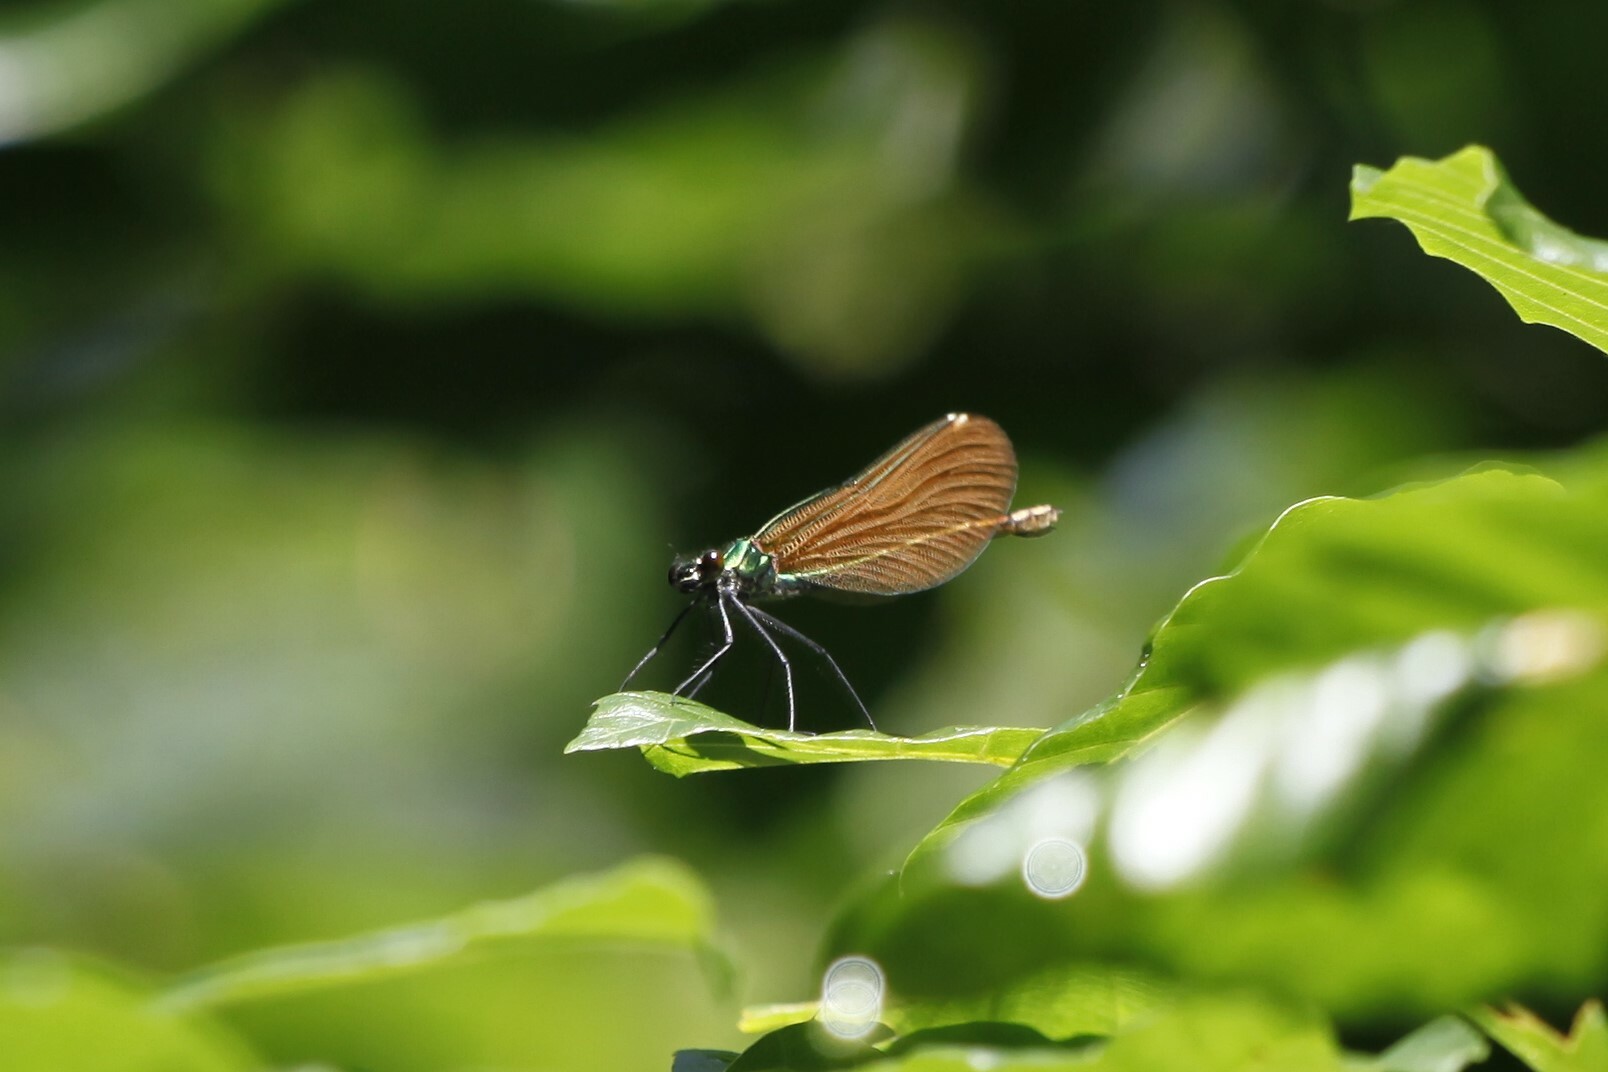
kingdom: Animalia
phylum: Arthropoda
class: Insecta
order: Odonata
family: Calopterygidae
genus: Calopteryx
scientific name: Calopteryx virgo
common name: Beautiful demoiselle
